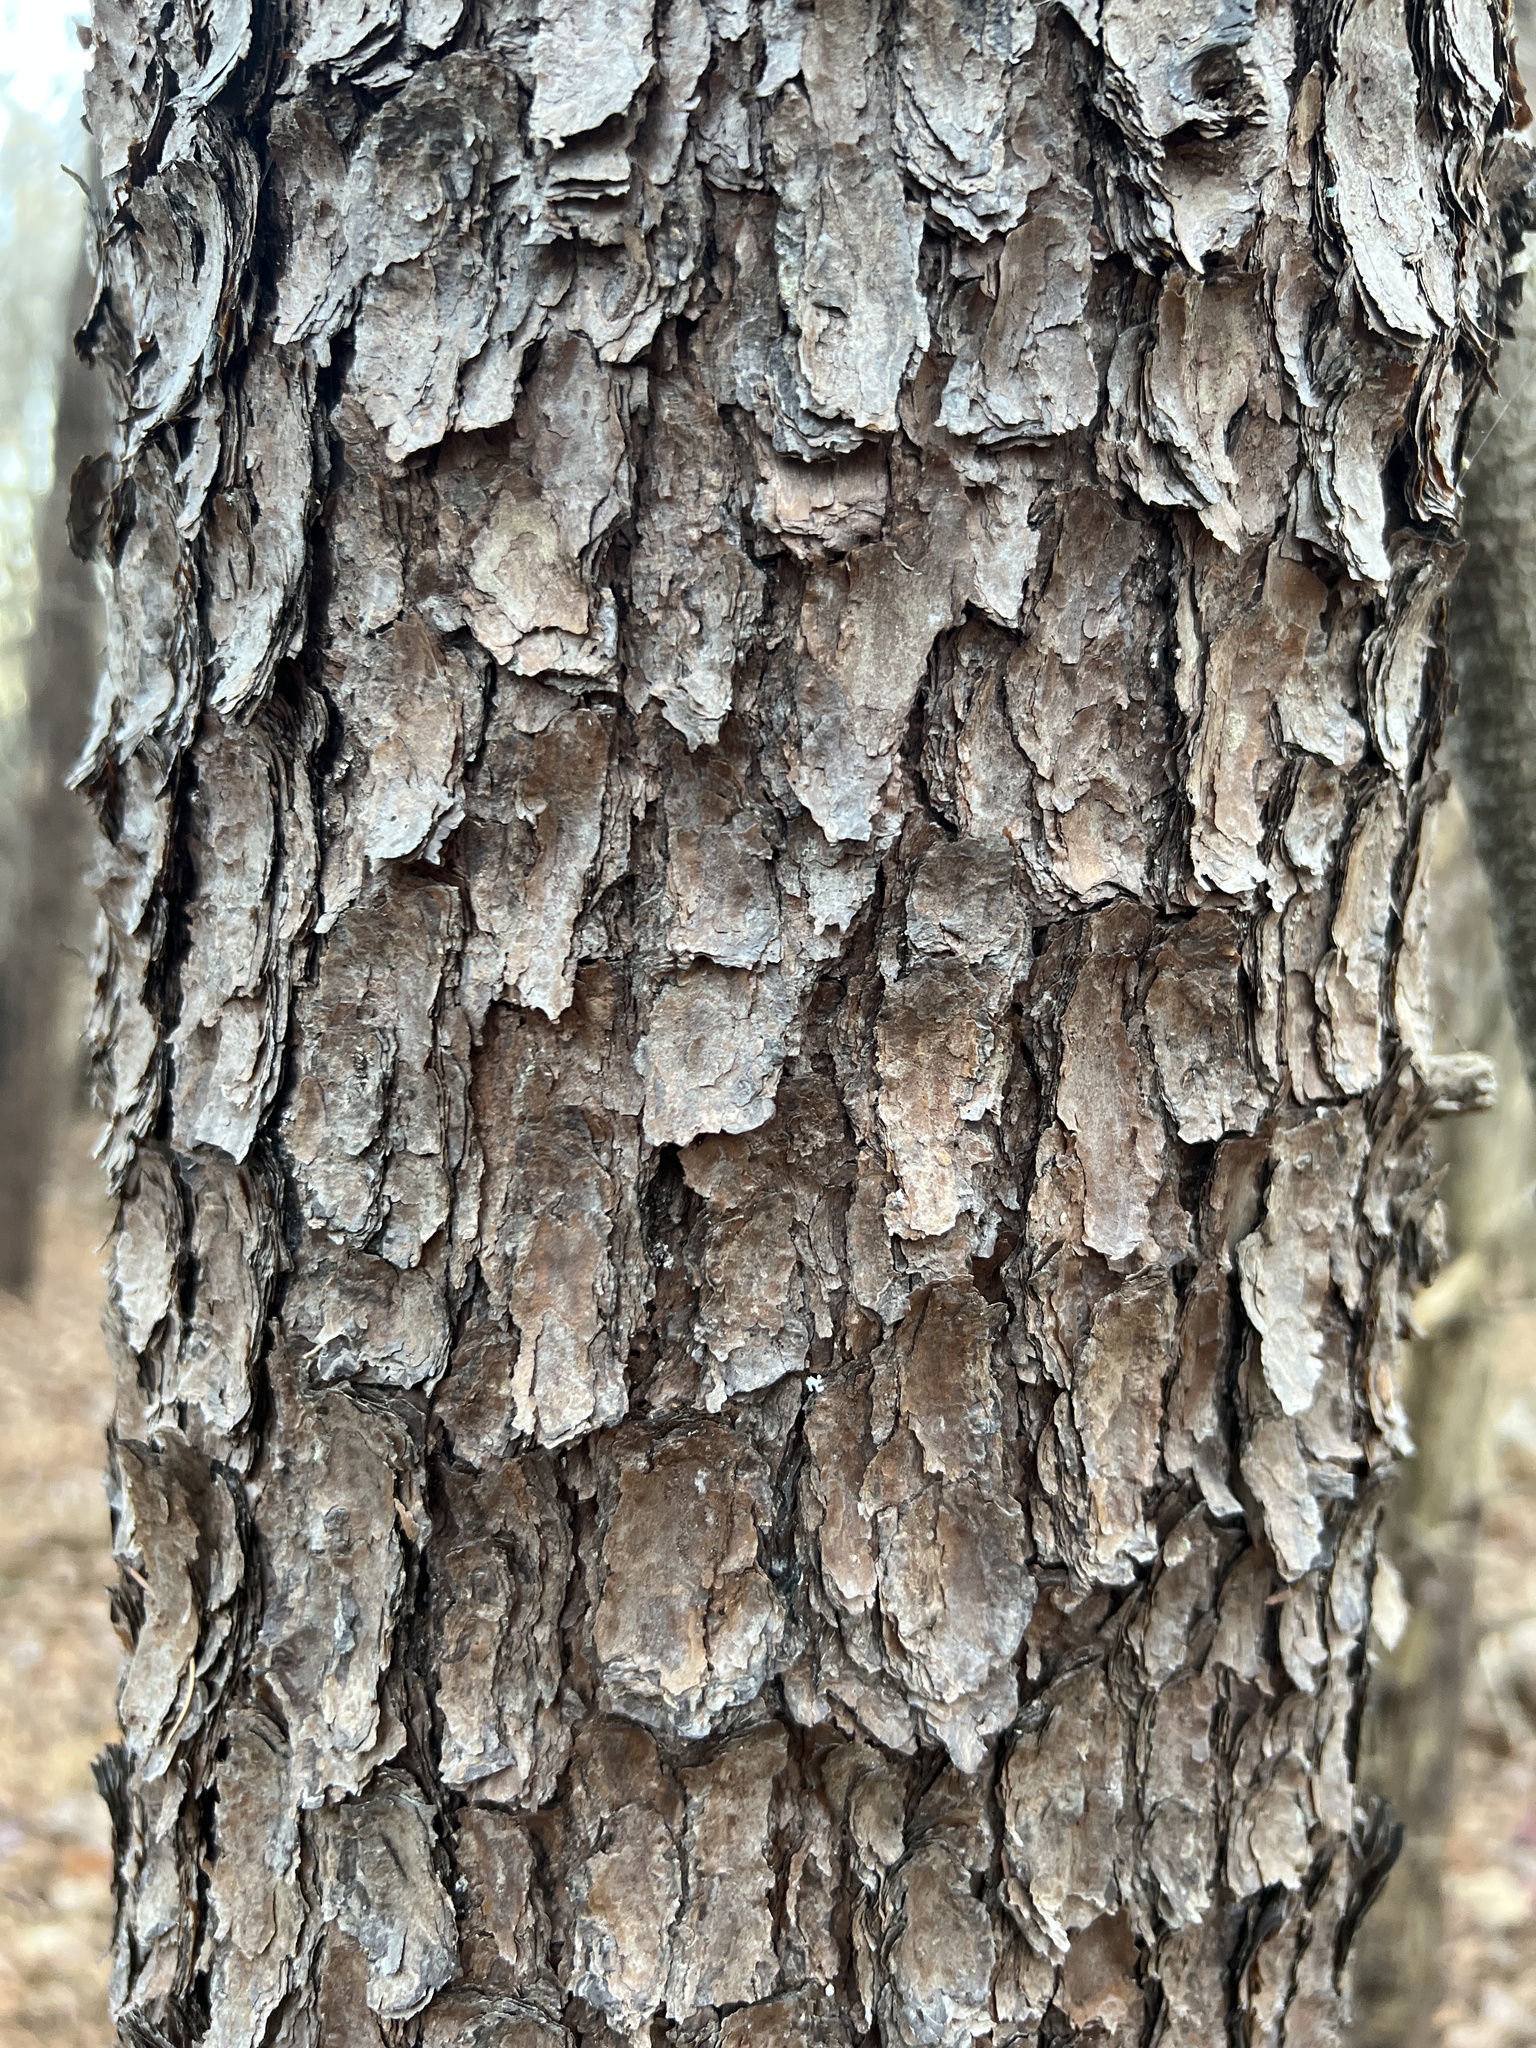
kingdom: Plantae
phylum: Tracheophyta
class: Pinopsida
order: Pinales
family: Pinaceae
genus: Pinus
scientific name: Pinus virginiana
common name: Scrub pine
